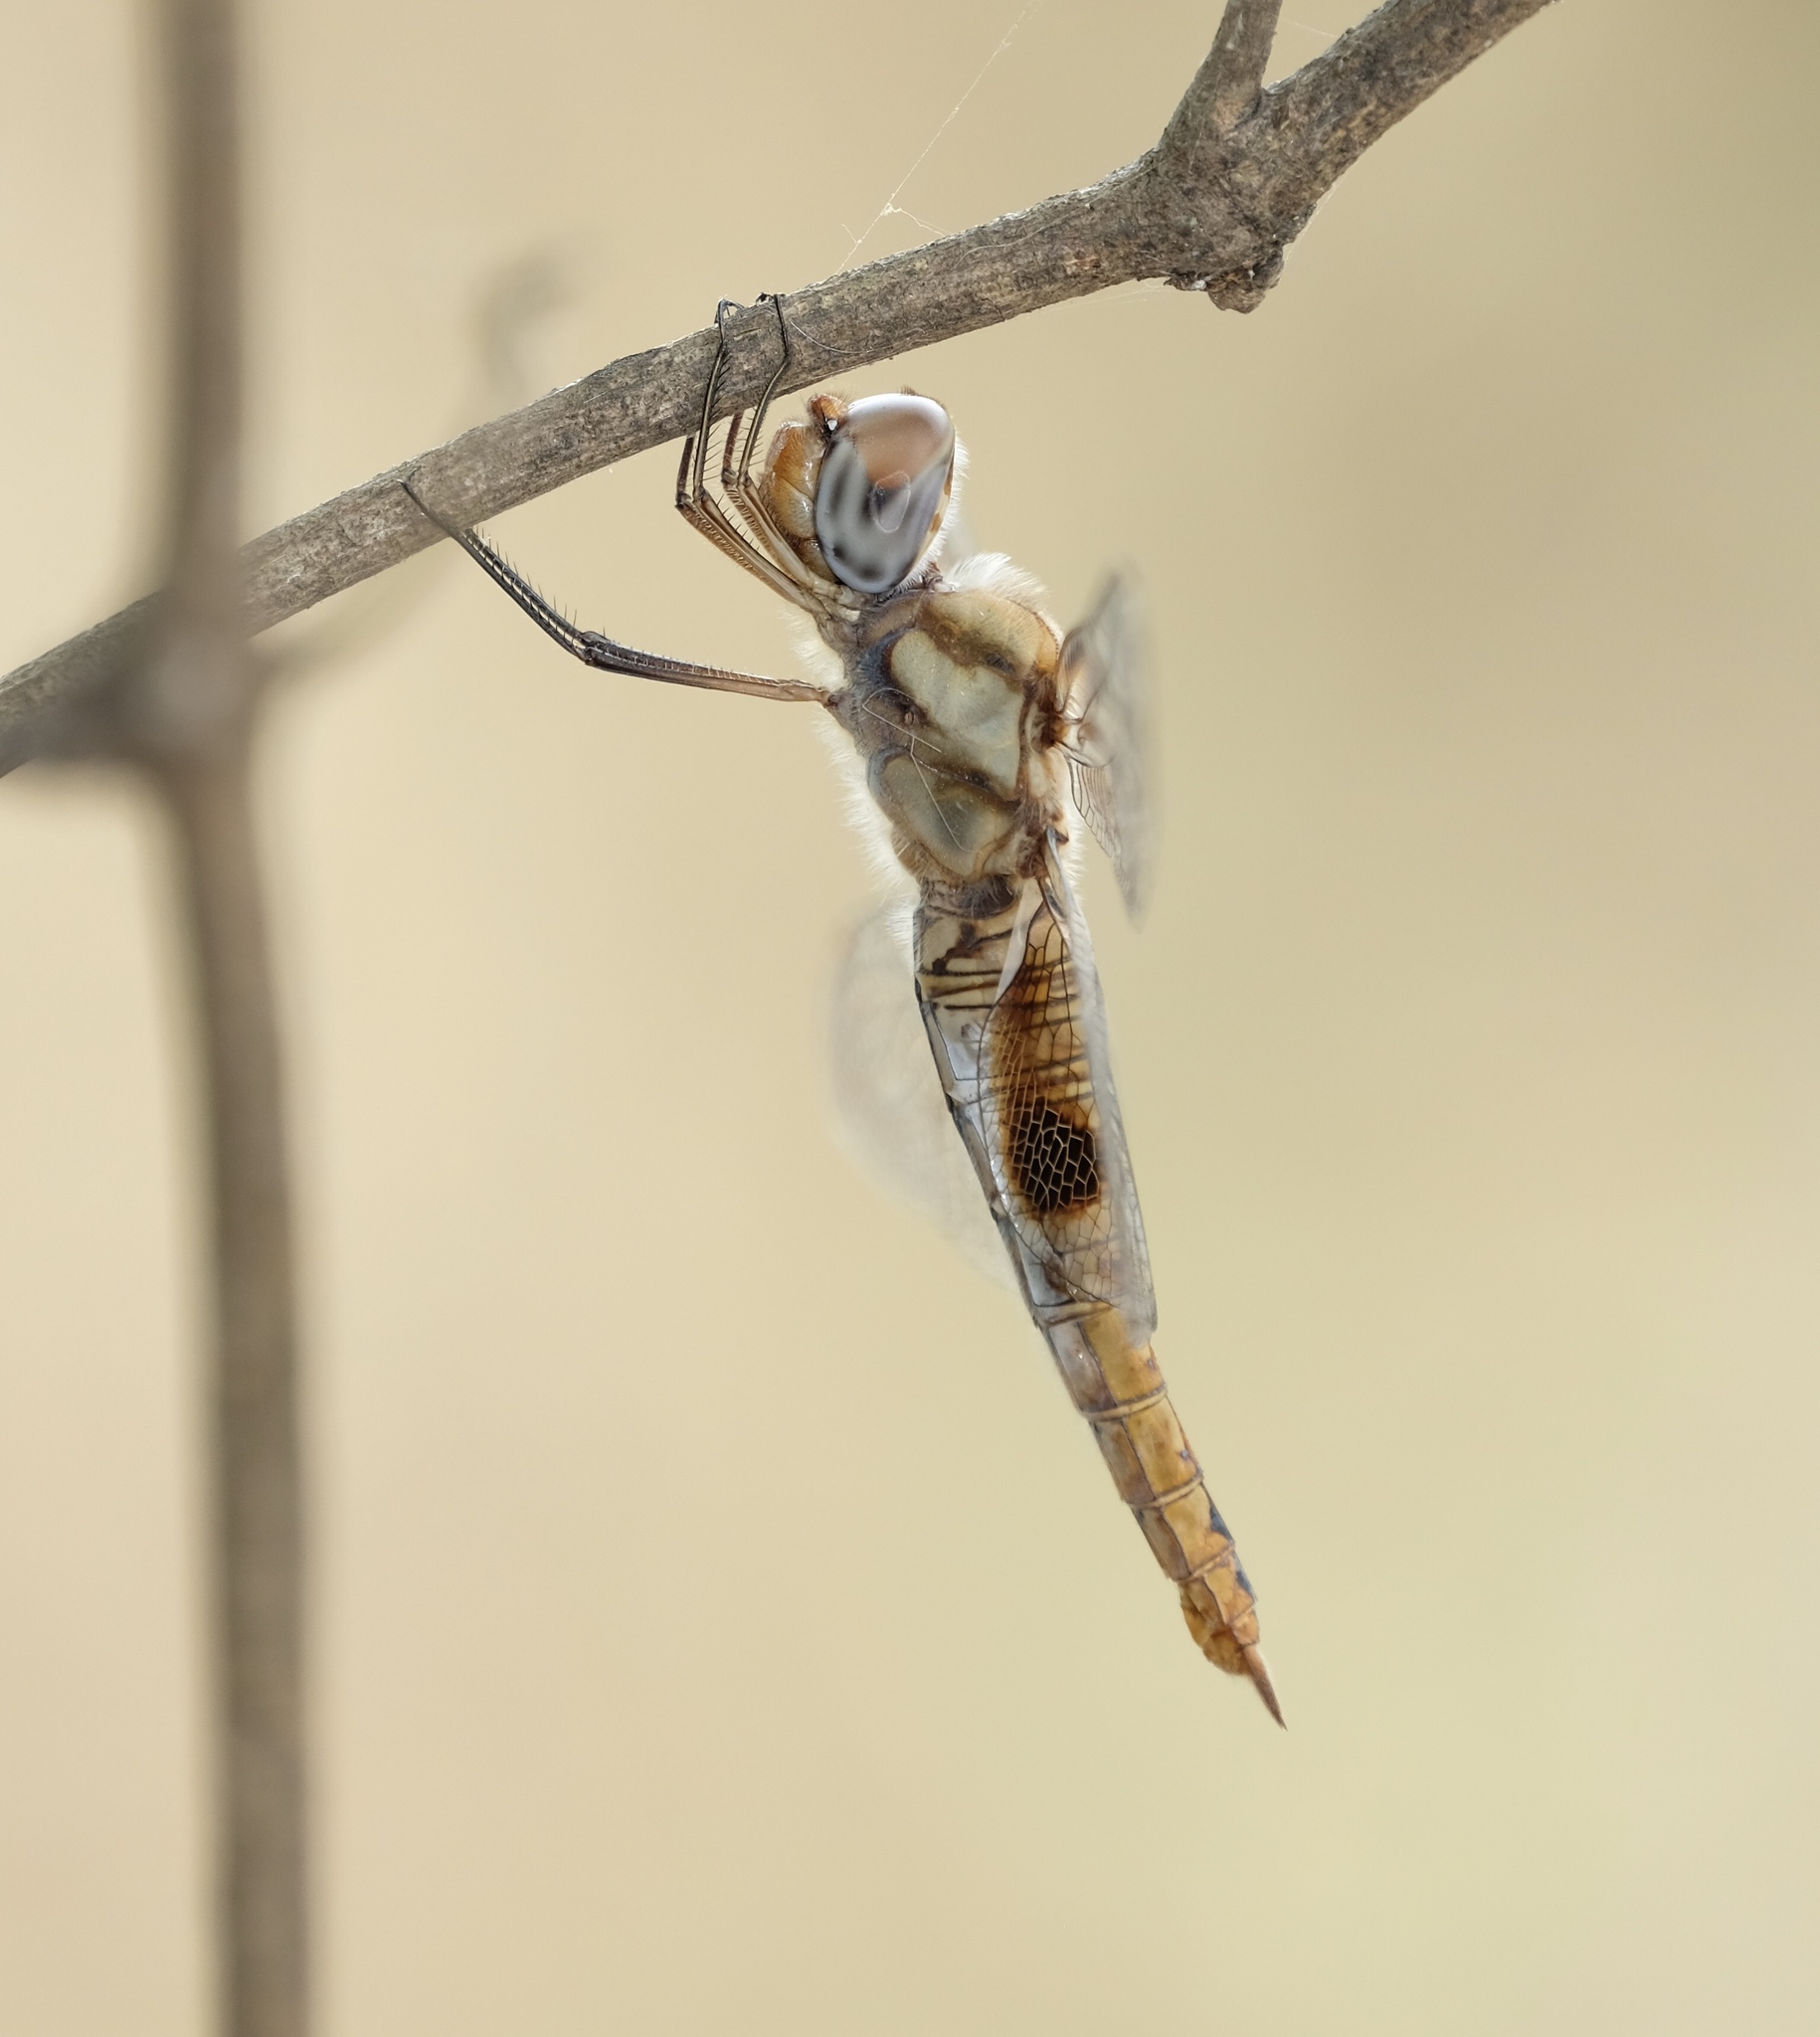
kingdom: Animalia
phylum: Arthropoda
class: Insecta
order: Odonata
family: Libellulidae
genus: Pantala
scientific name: Pantala hymenaea
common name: Spot-winged glider
